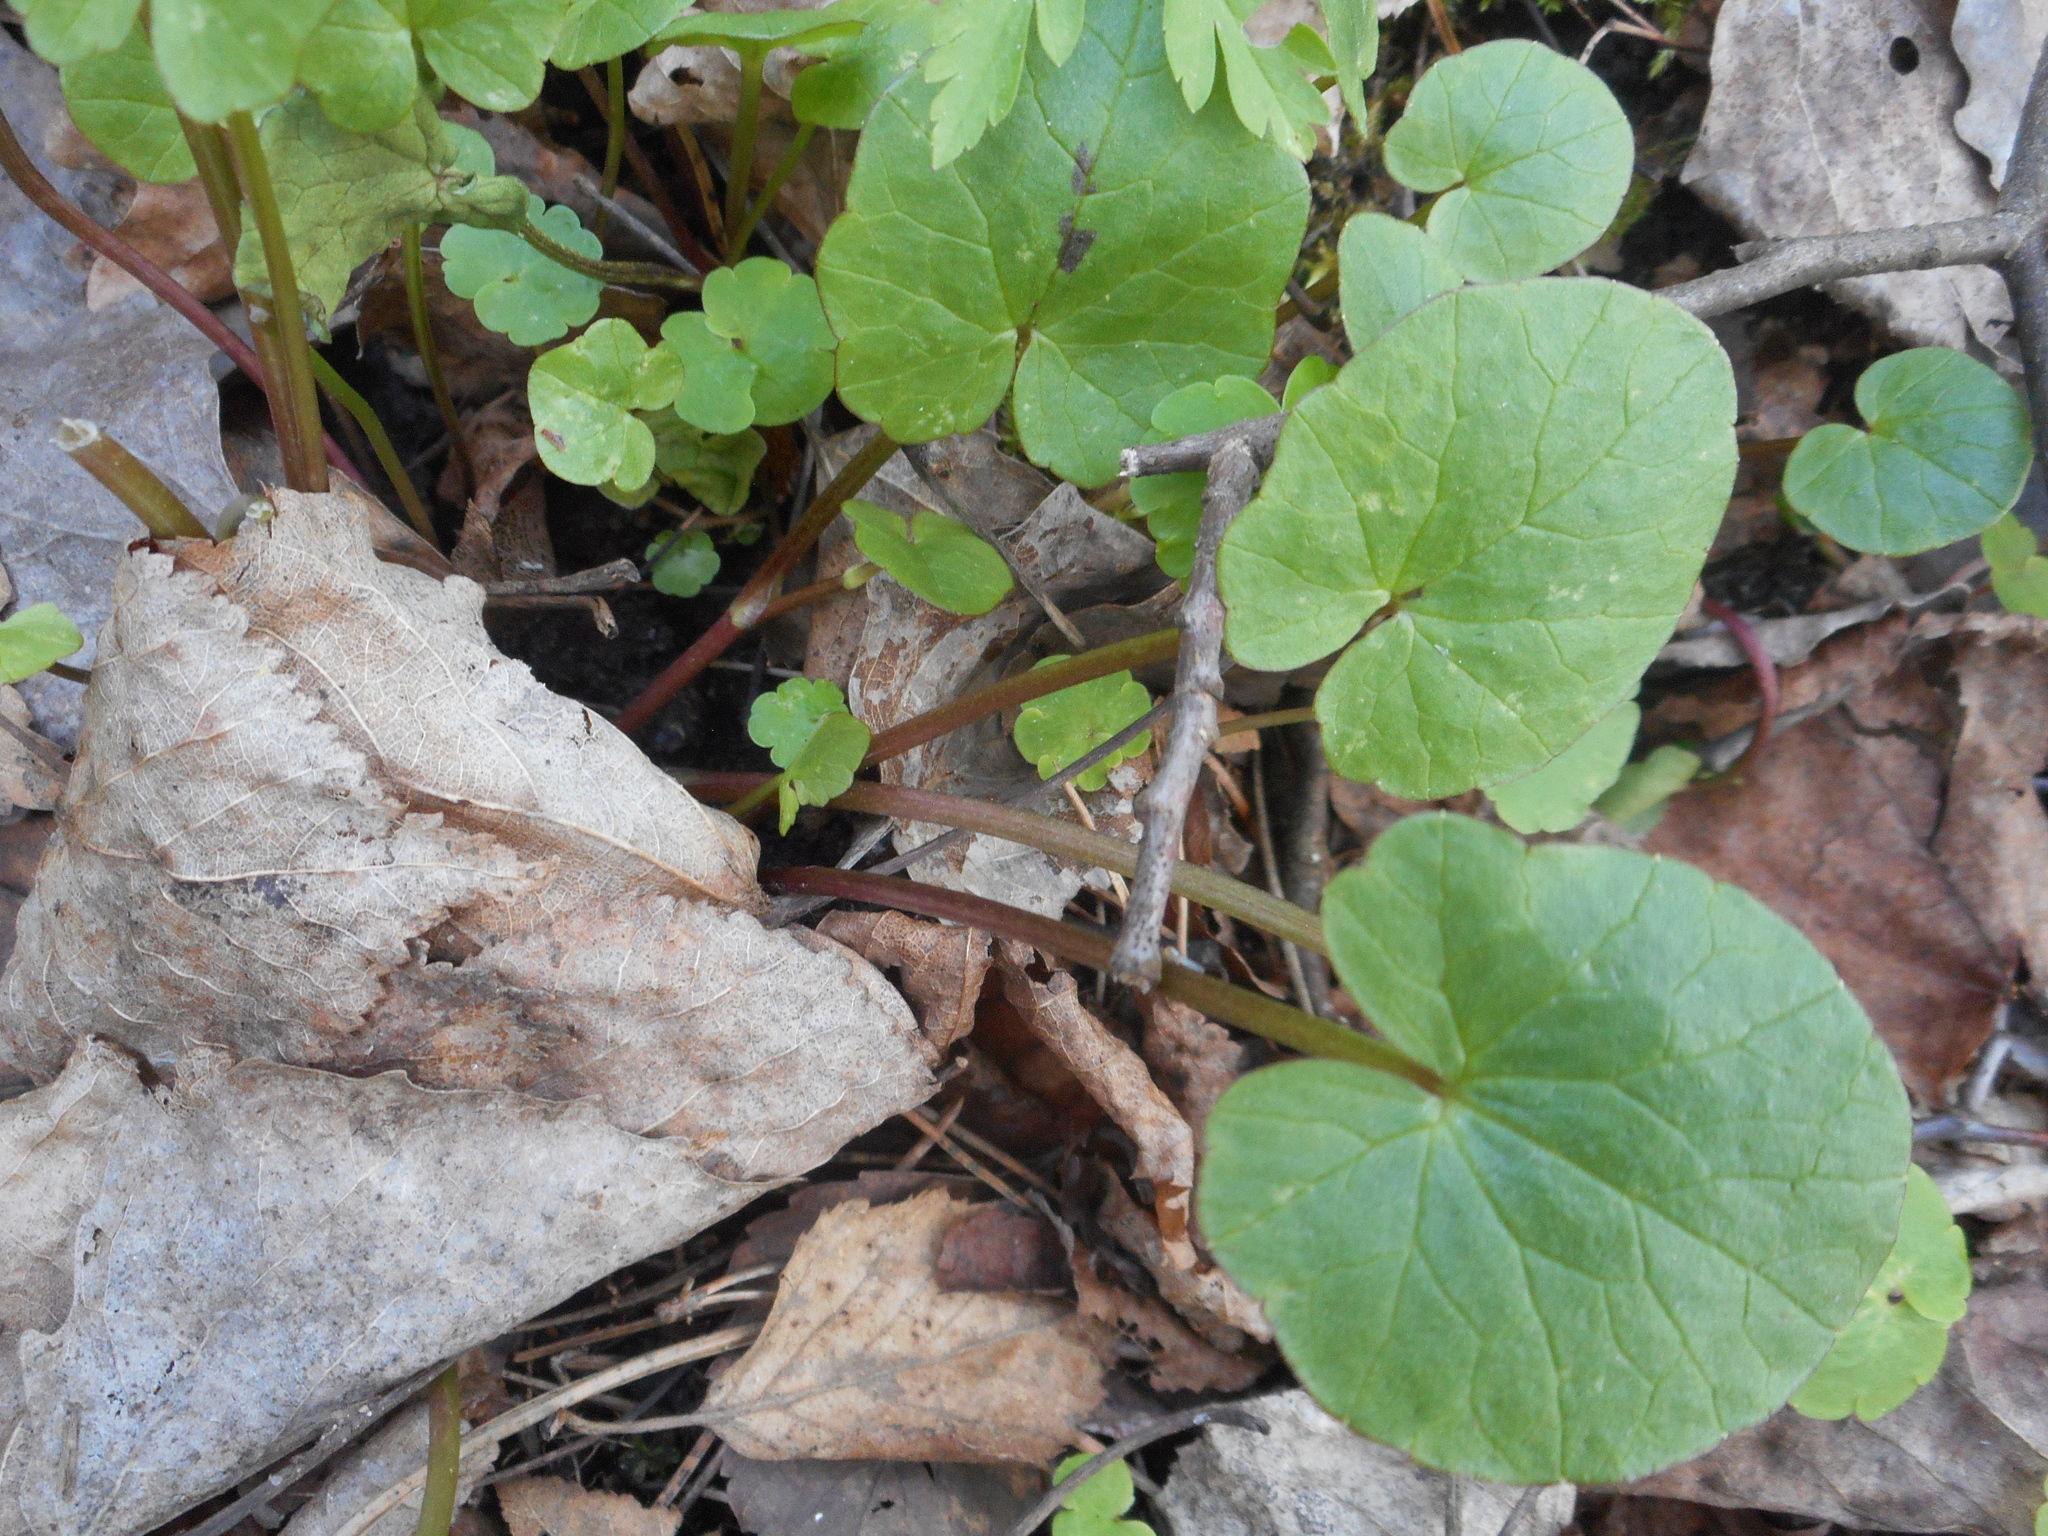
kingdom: Plantae
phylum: Tracheophyta
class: Magnoliopsida
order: Ranunculales
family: Ranunculaceae
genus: Ficaria
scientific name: Ficaria verna
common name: Lesser celandine
